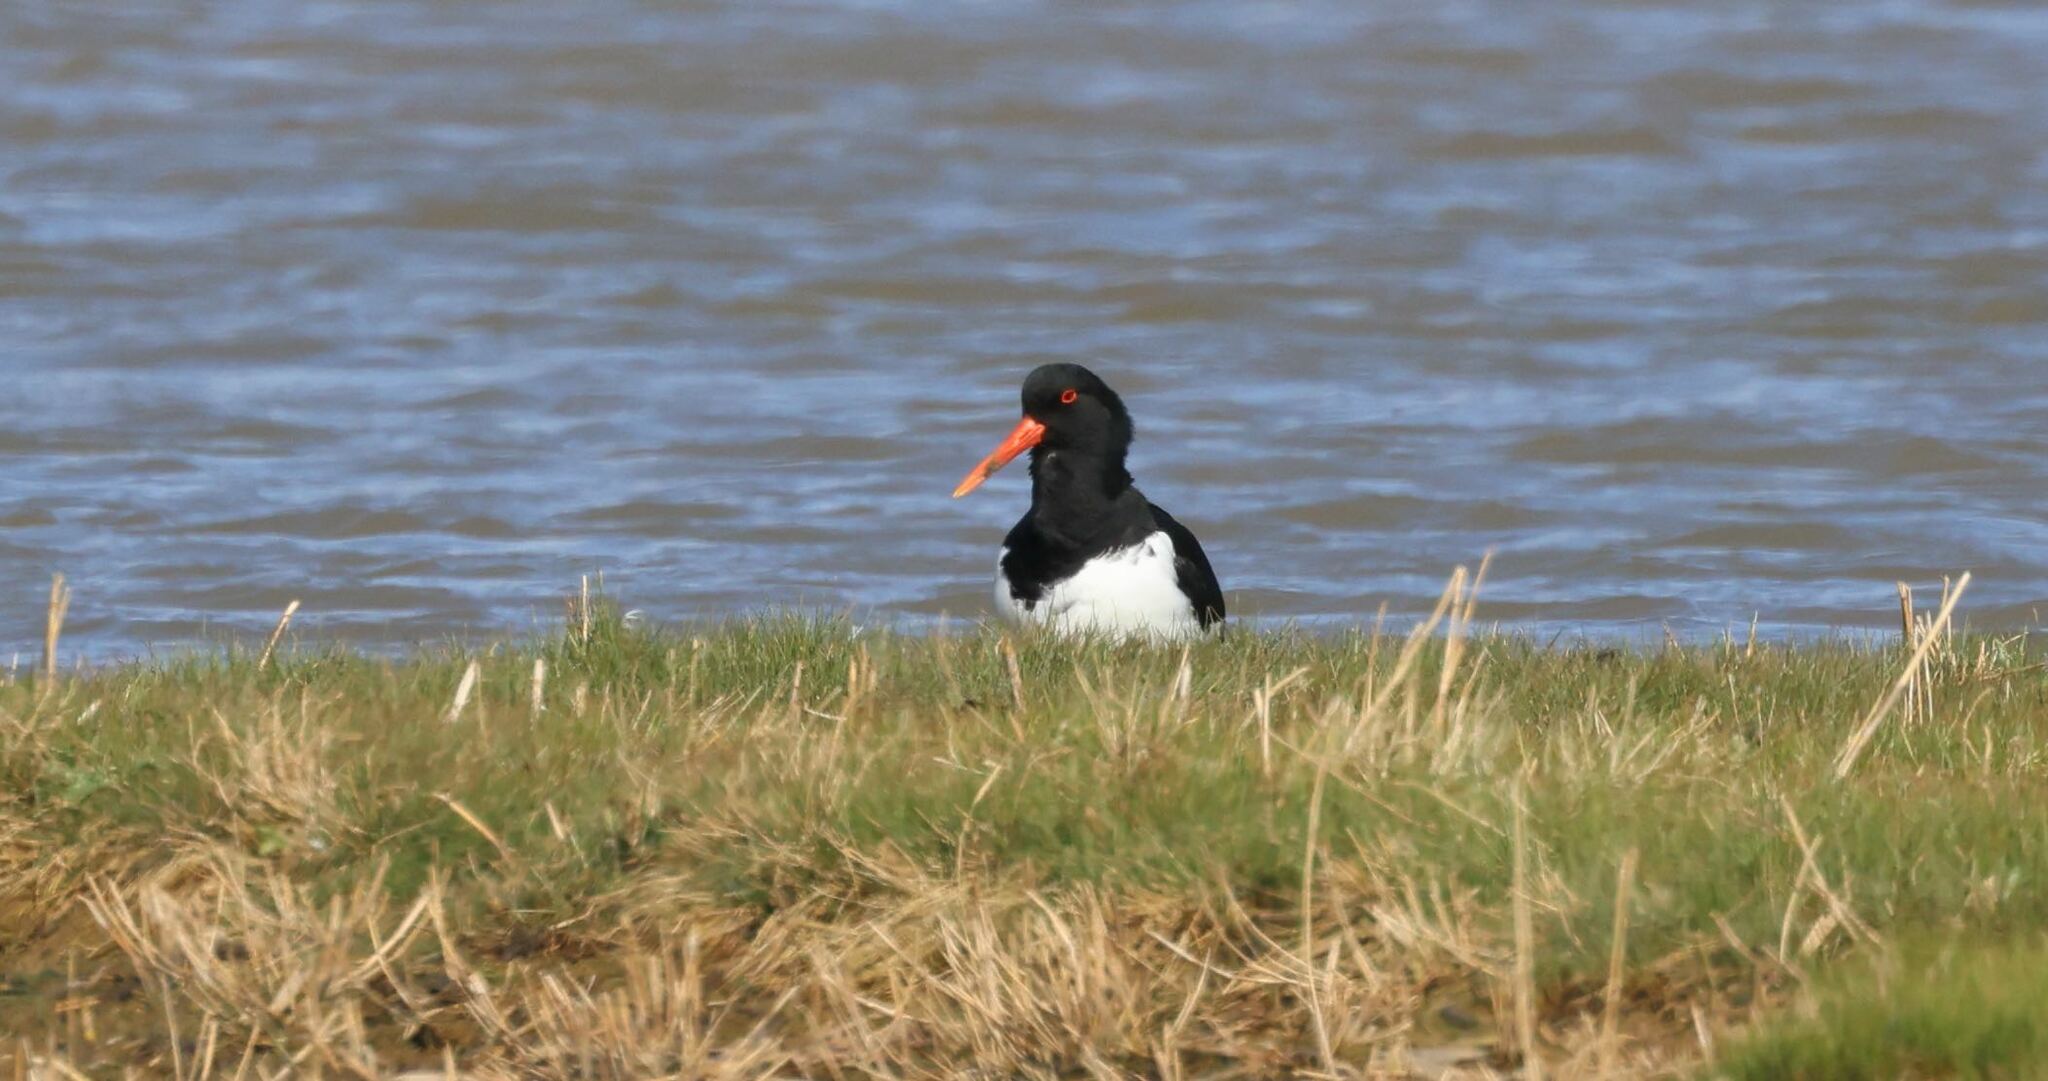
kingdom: Animalia
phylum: Chordata
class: Aves
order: Charadriiformes
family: Haematopodidae
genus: Haematopus
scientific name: Haematopus ostralegus
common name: Eurasian oystercatcher
